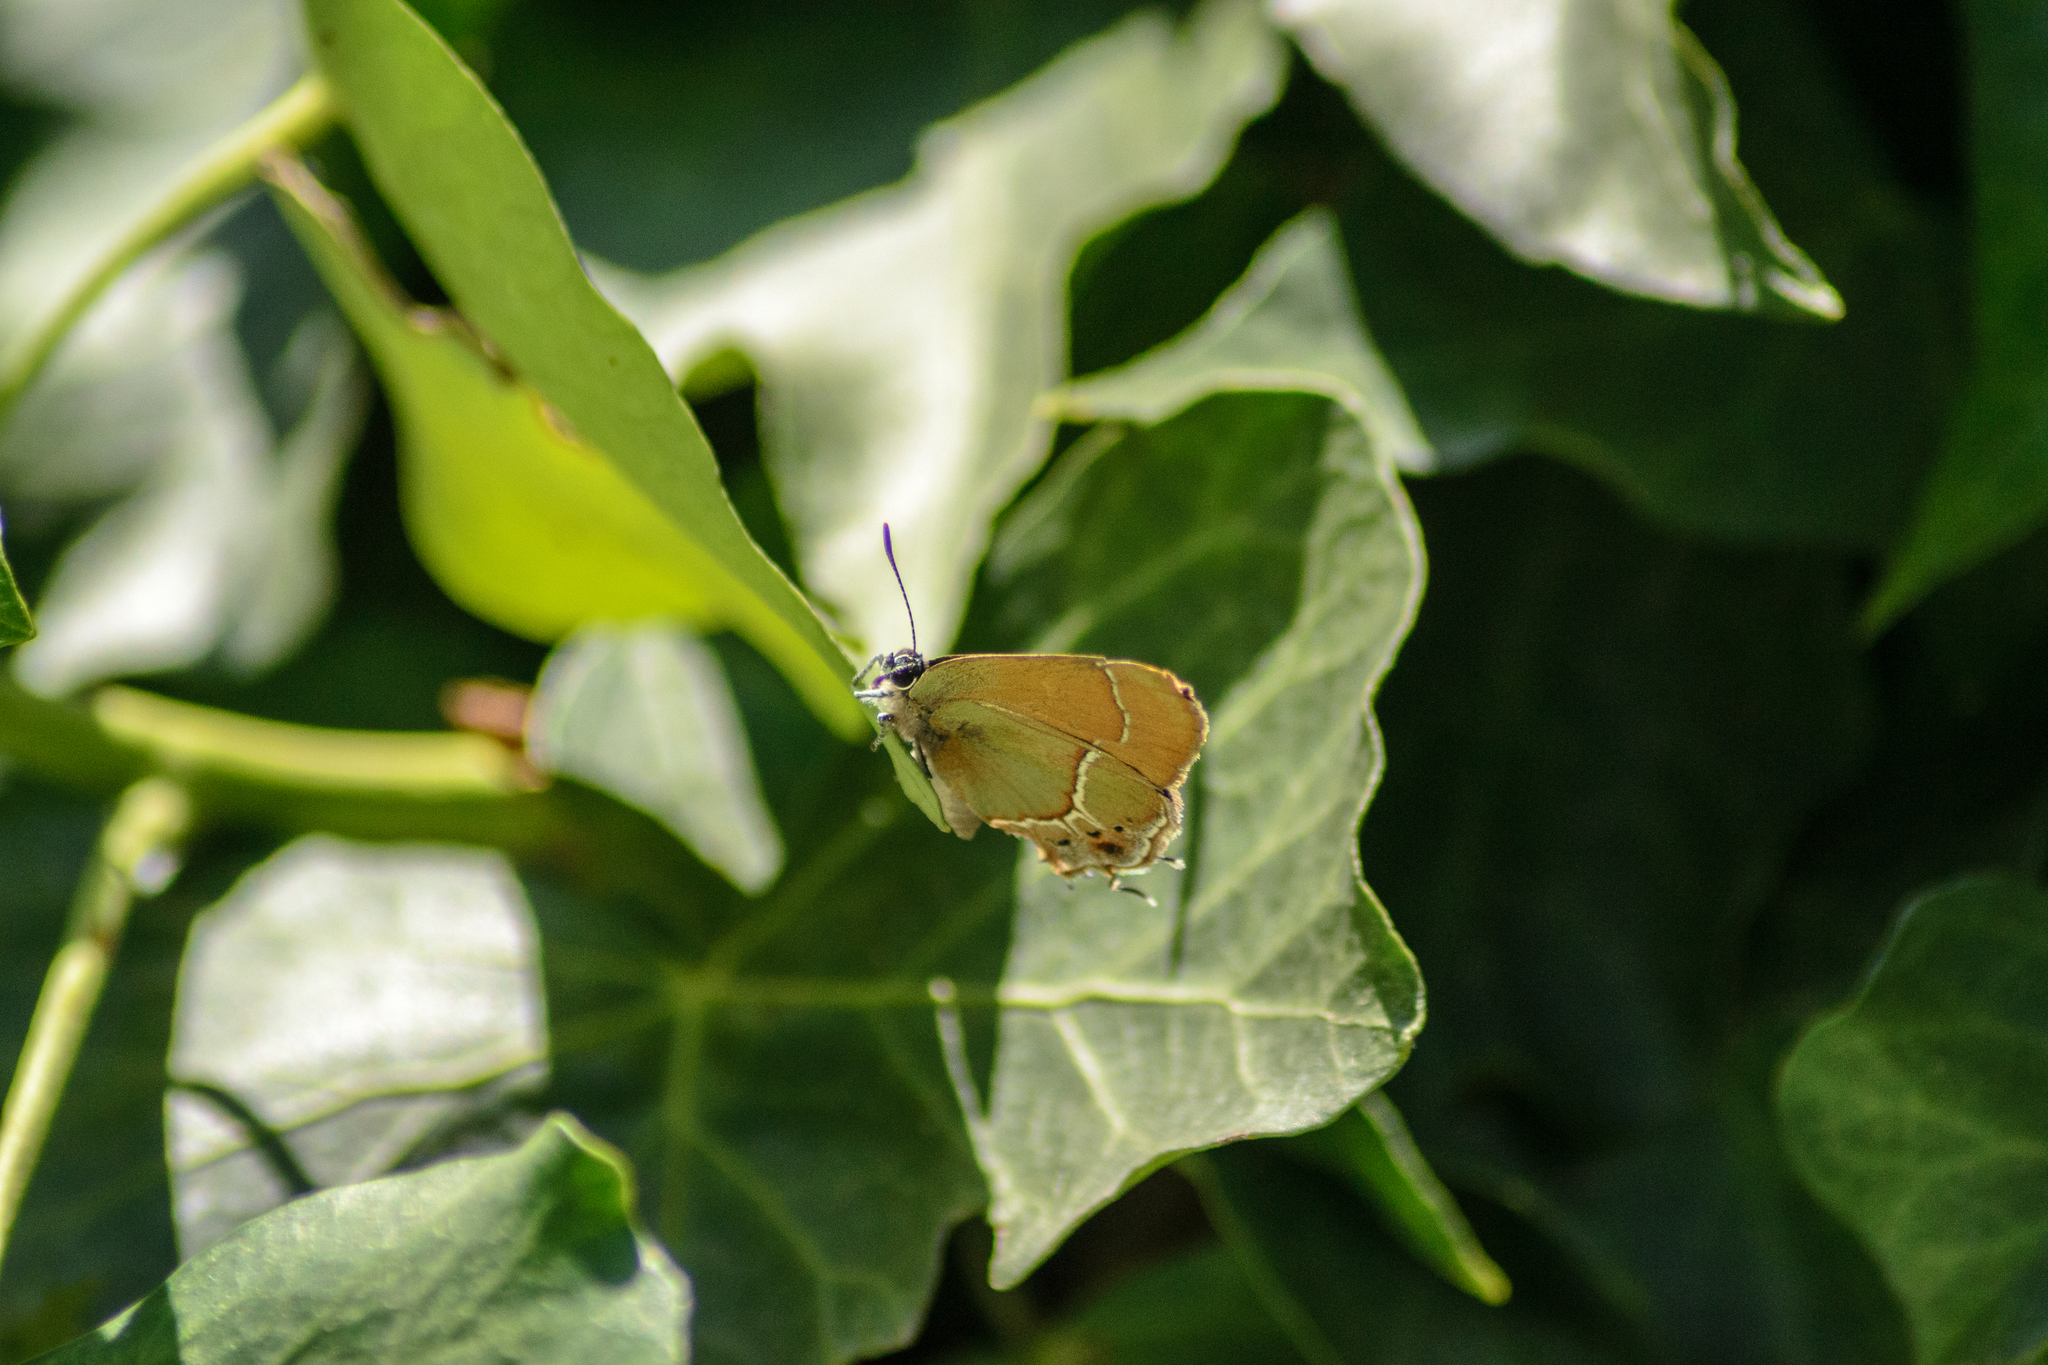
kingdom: Animalia
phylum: Arthropoda
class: Insecta
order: Lepidoptera
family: Lycaenidae
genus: Xamia
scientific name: Xamia xami
